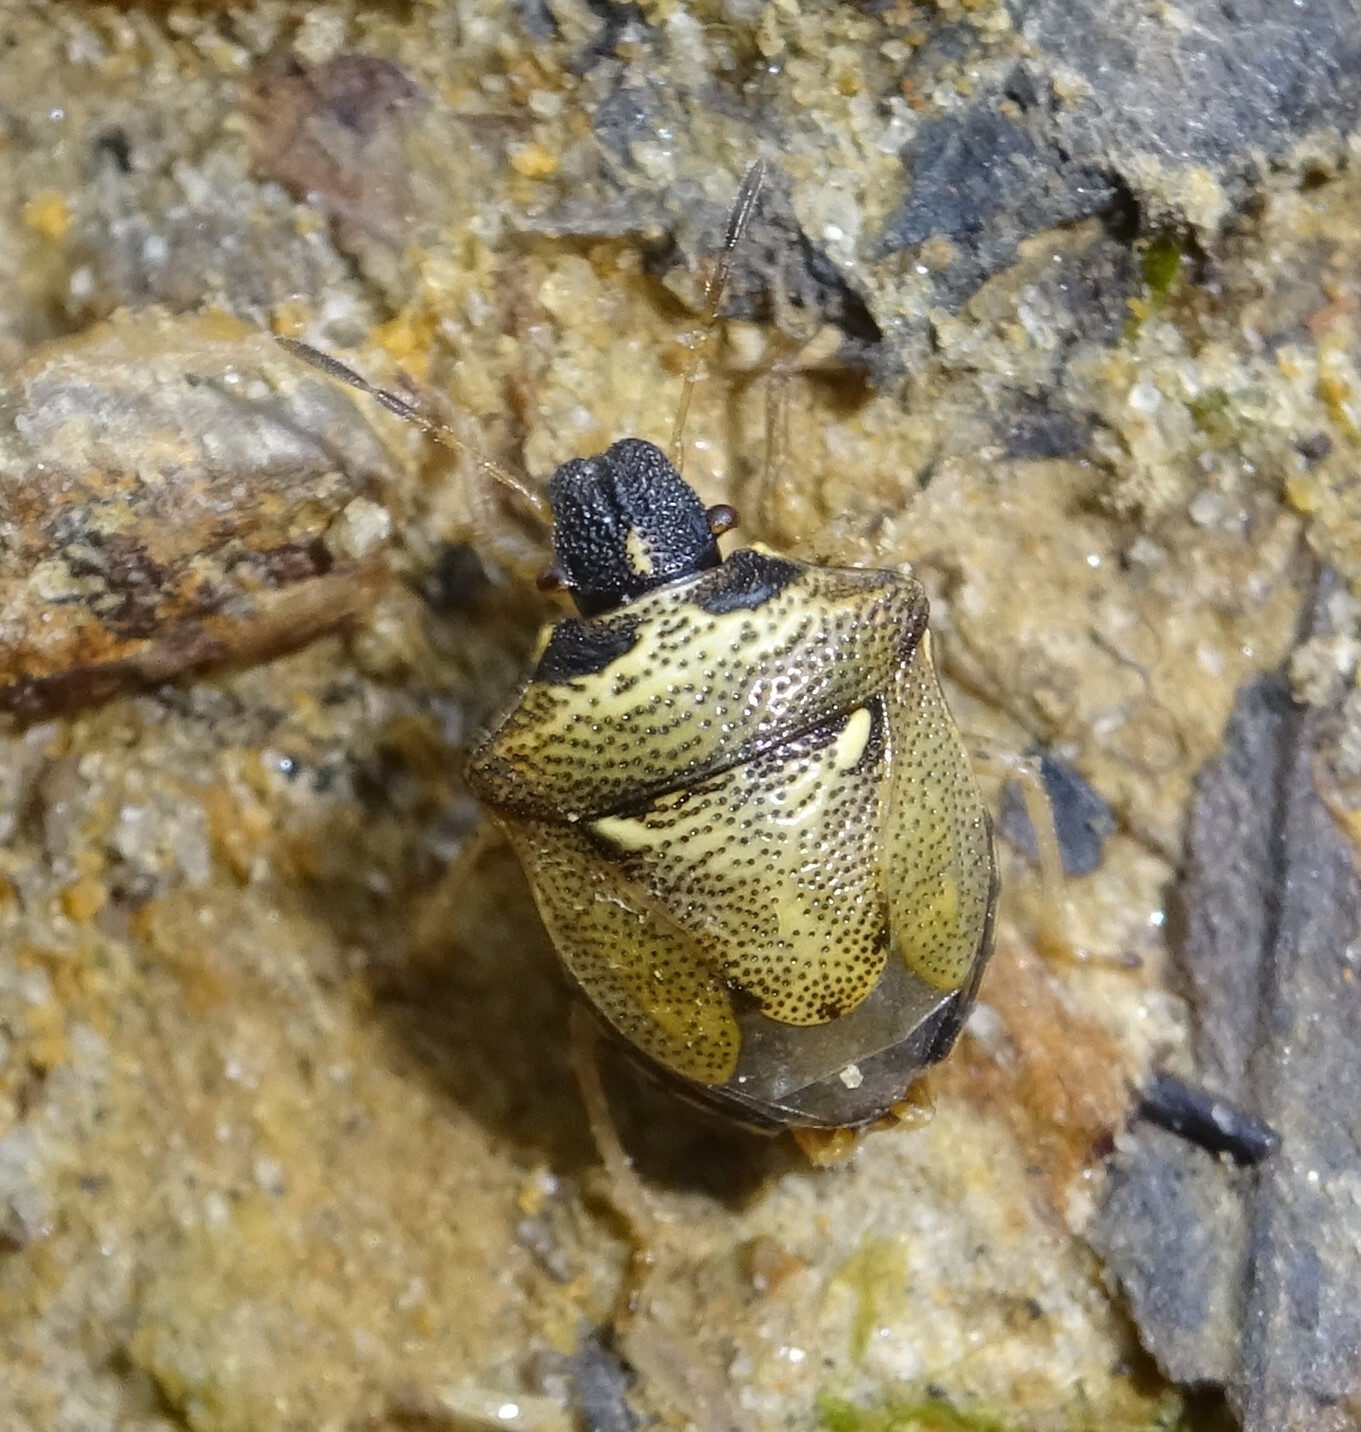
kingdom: Animalia
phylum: Arthropoda
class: Insecta
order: Hemiptera
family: Pentatomidae
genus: Eysarcoris
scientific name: Eysarcoris aeneus
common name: New forest shieldbug
